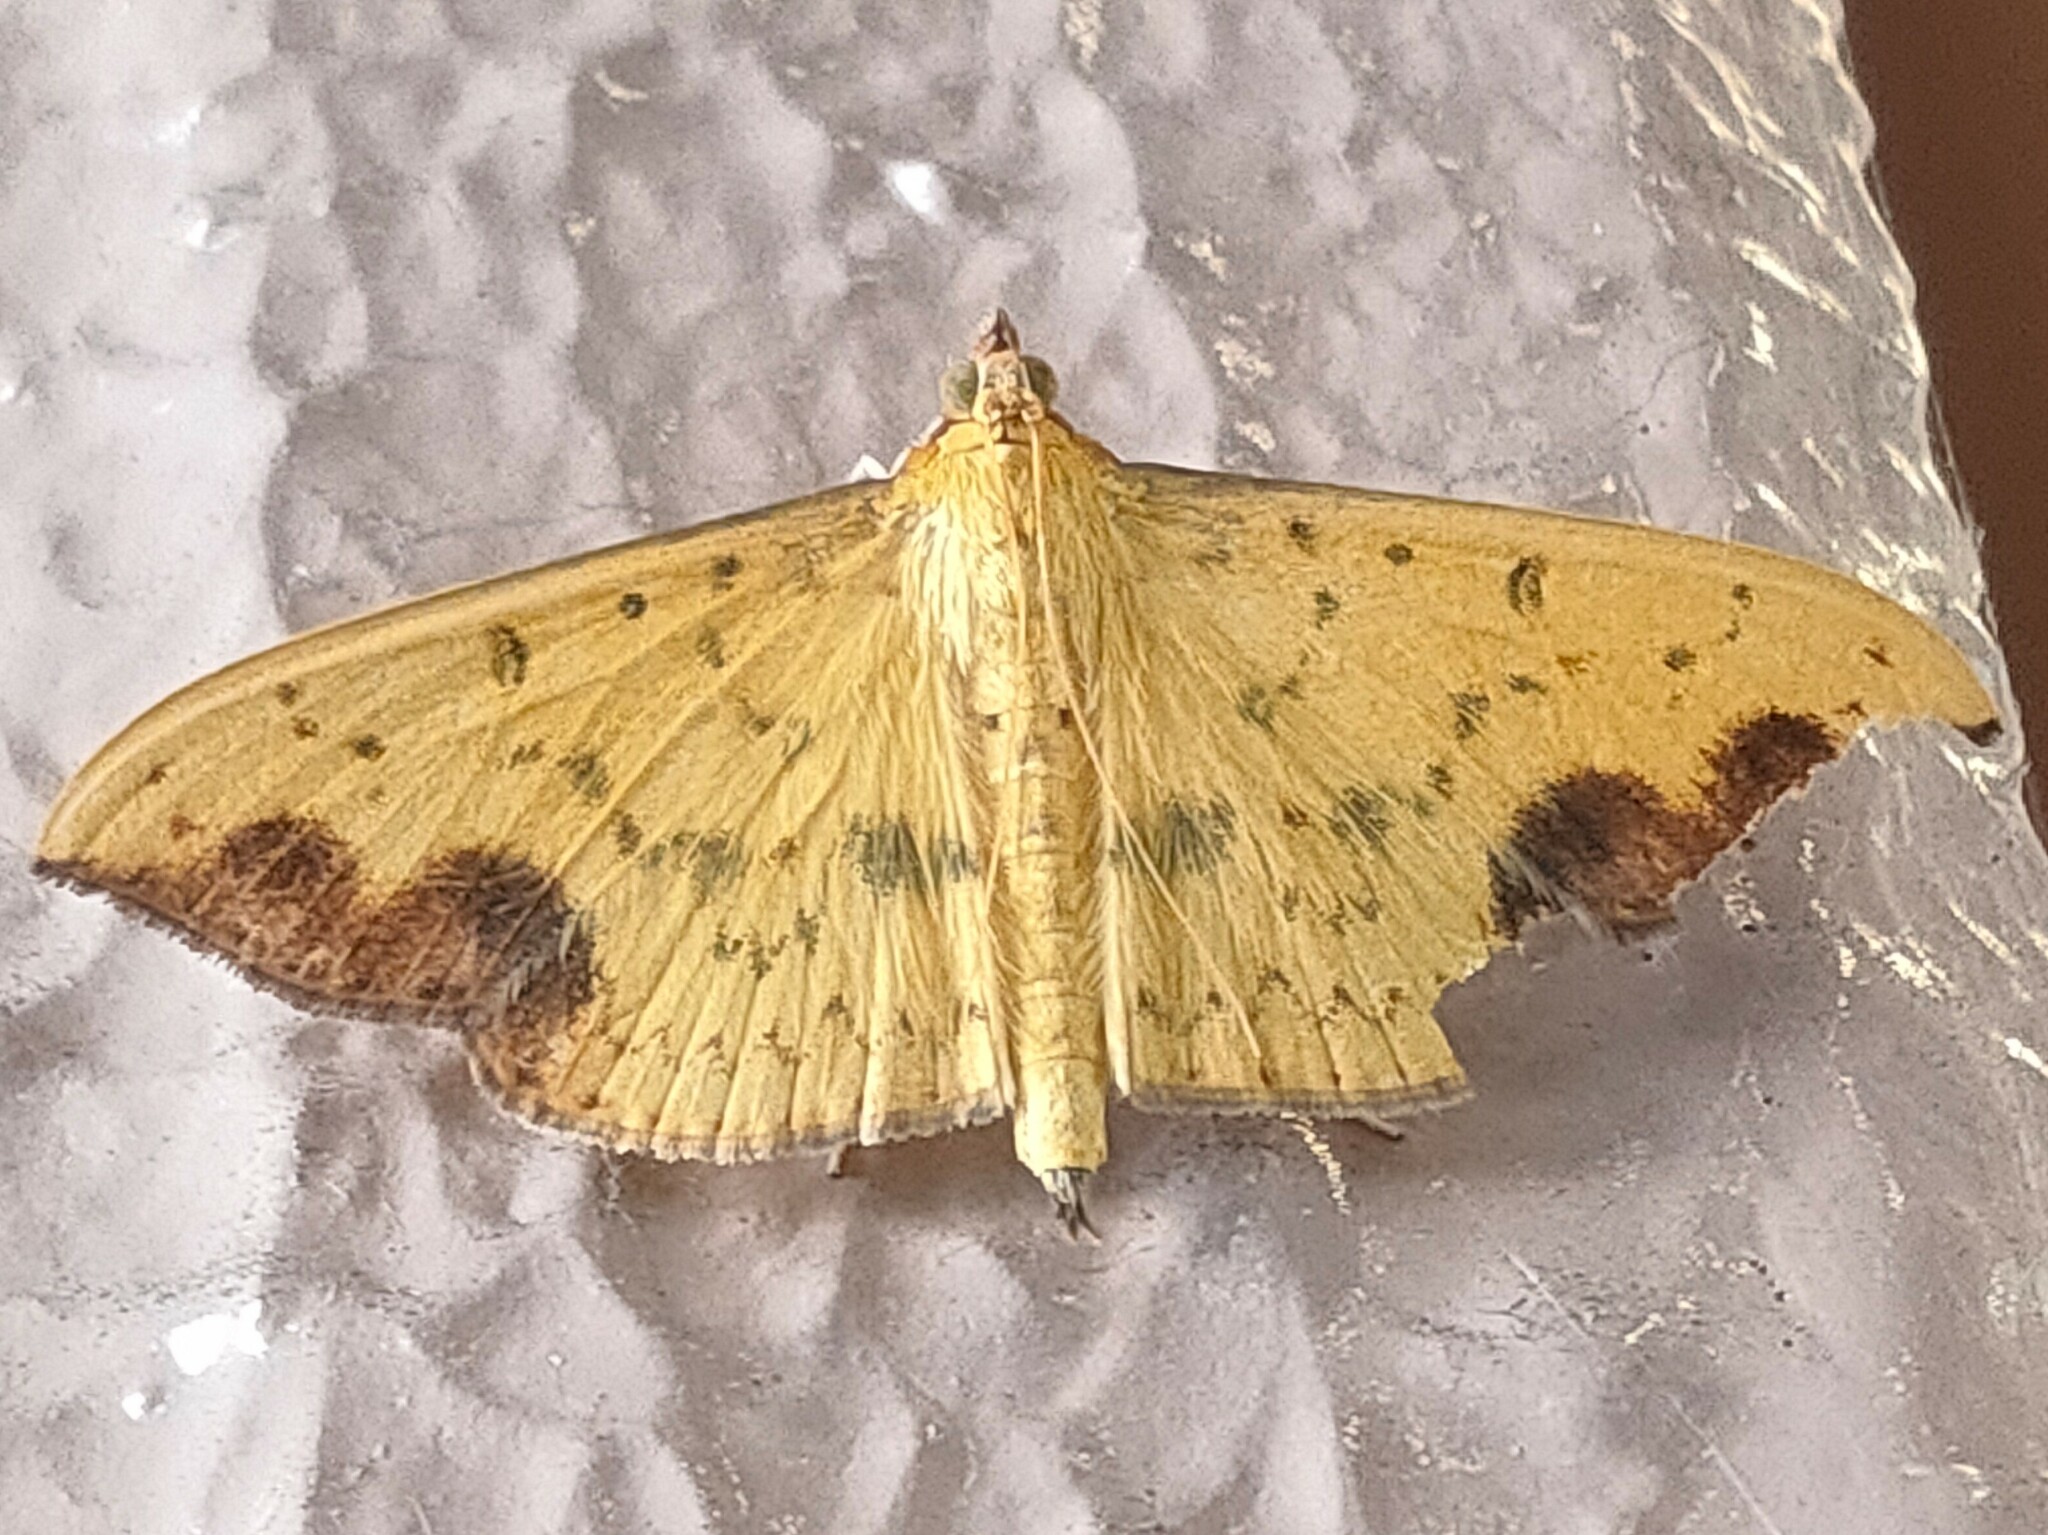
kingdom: Animalia
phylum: Arthropoda
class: Insecta
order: Lepidoptera
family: Crambidae
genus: Botyodes
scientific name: Botyodes principalis
